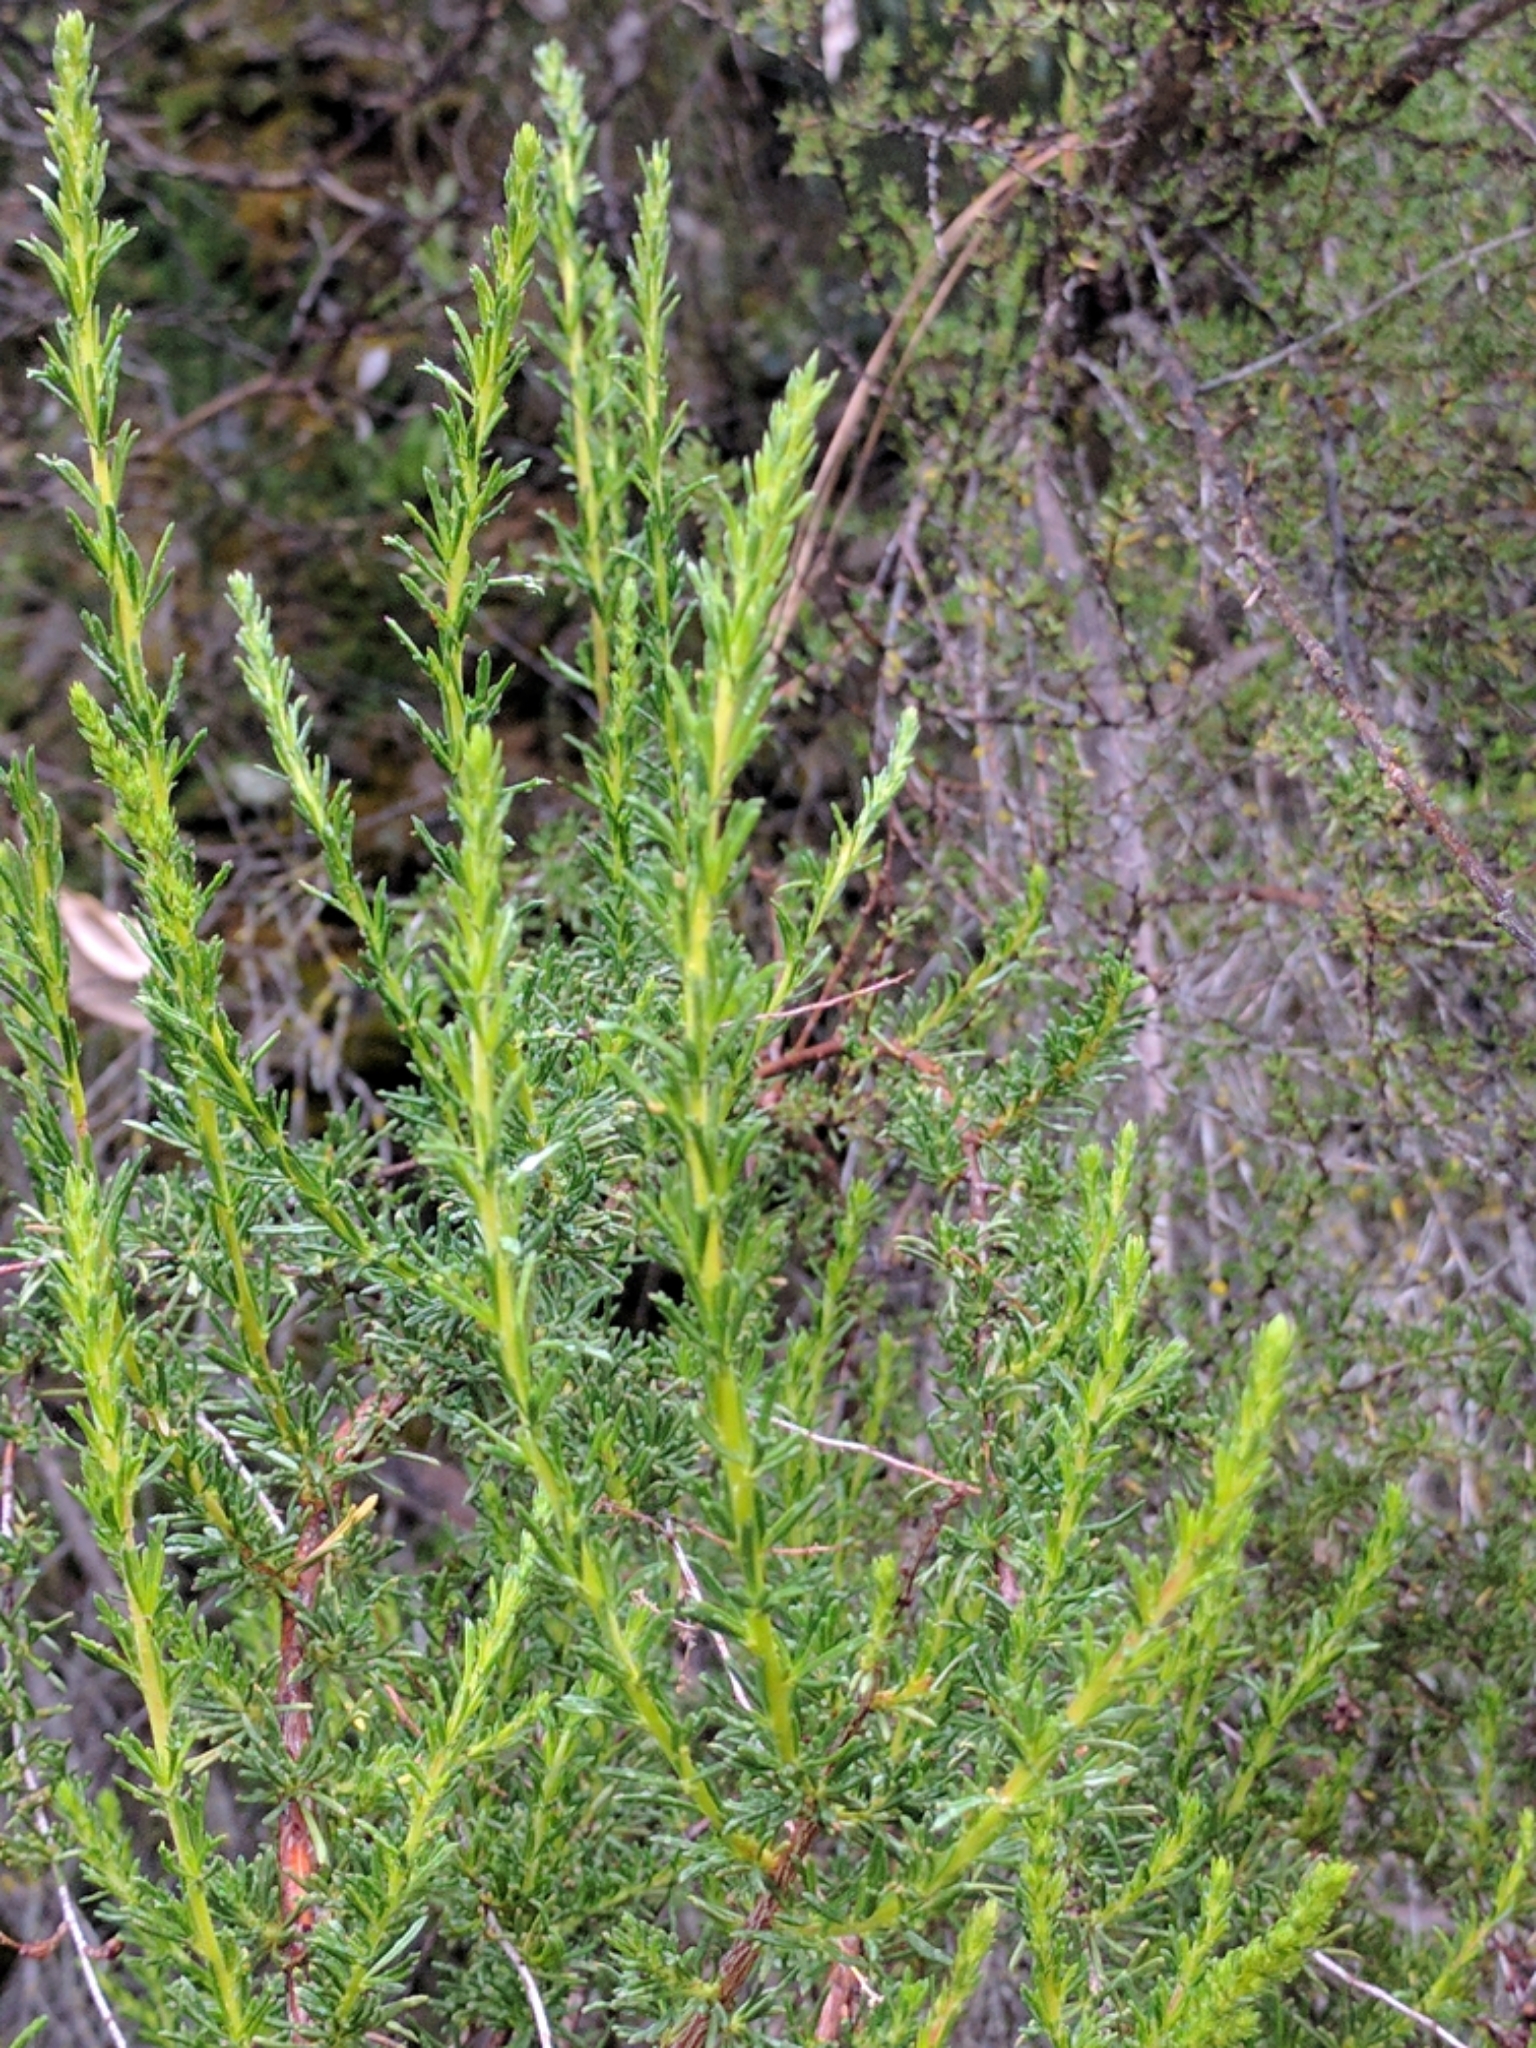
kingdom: Plantae
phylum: Tracheophyta
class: Magnoliopsida
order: Rosales
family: Rosaceae
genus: Adenostoma
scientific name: Adenostoma fasciculatum
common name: Chamise
